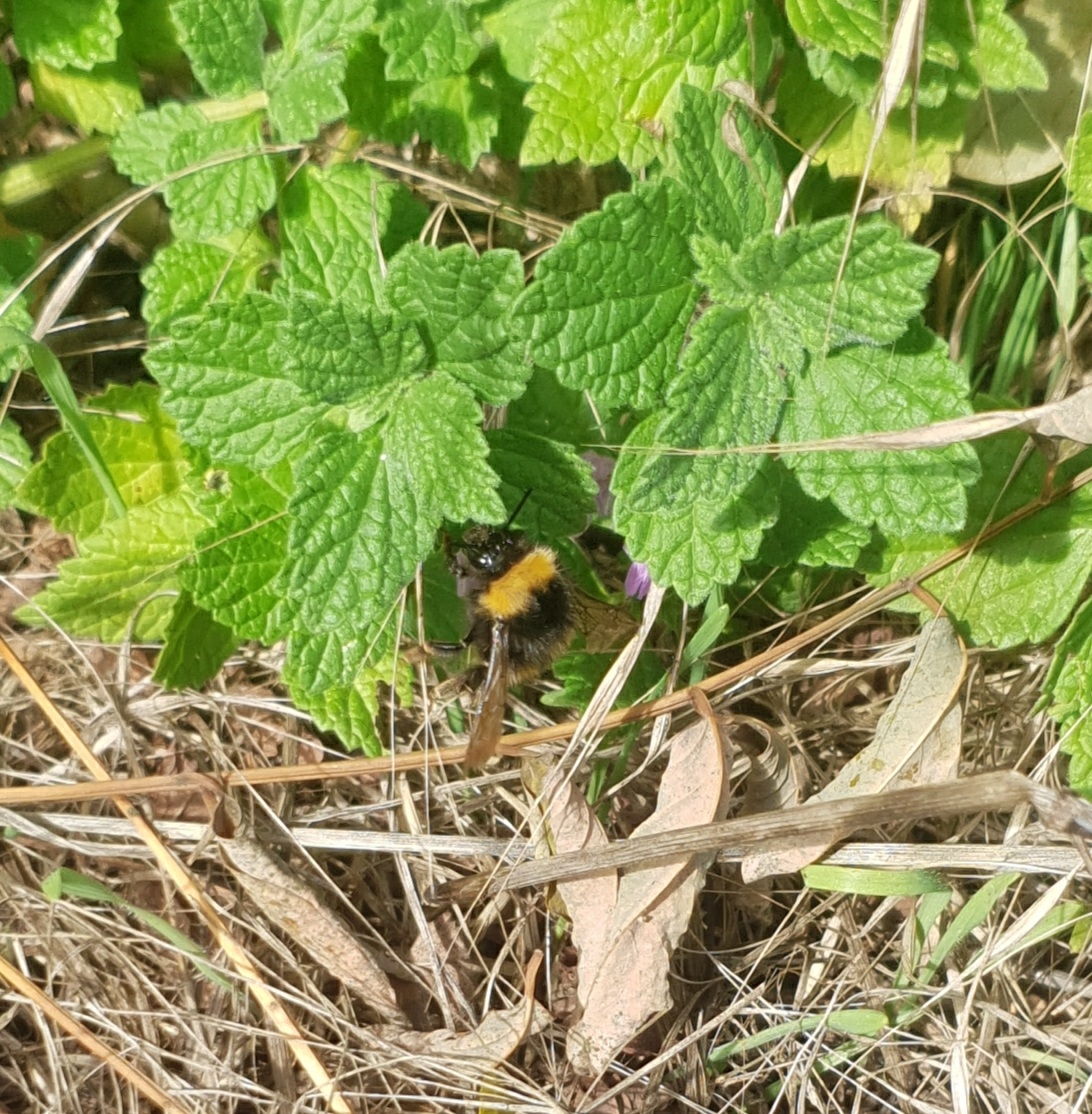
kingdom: Animalia
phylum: Arthropoda
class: Insecta
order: Hymenoptera
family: Apidae
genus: Bombus
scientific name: Bombus pratorum
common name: Early humble-bee
